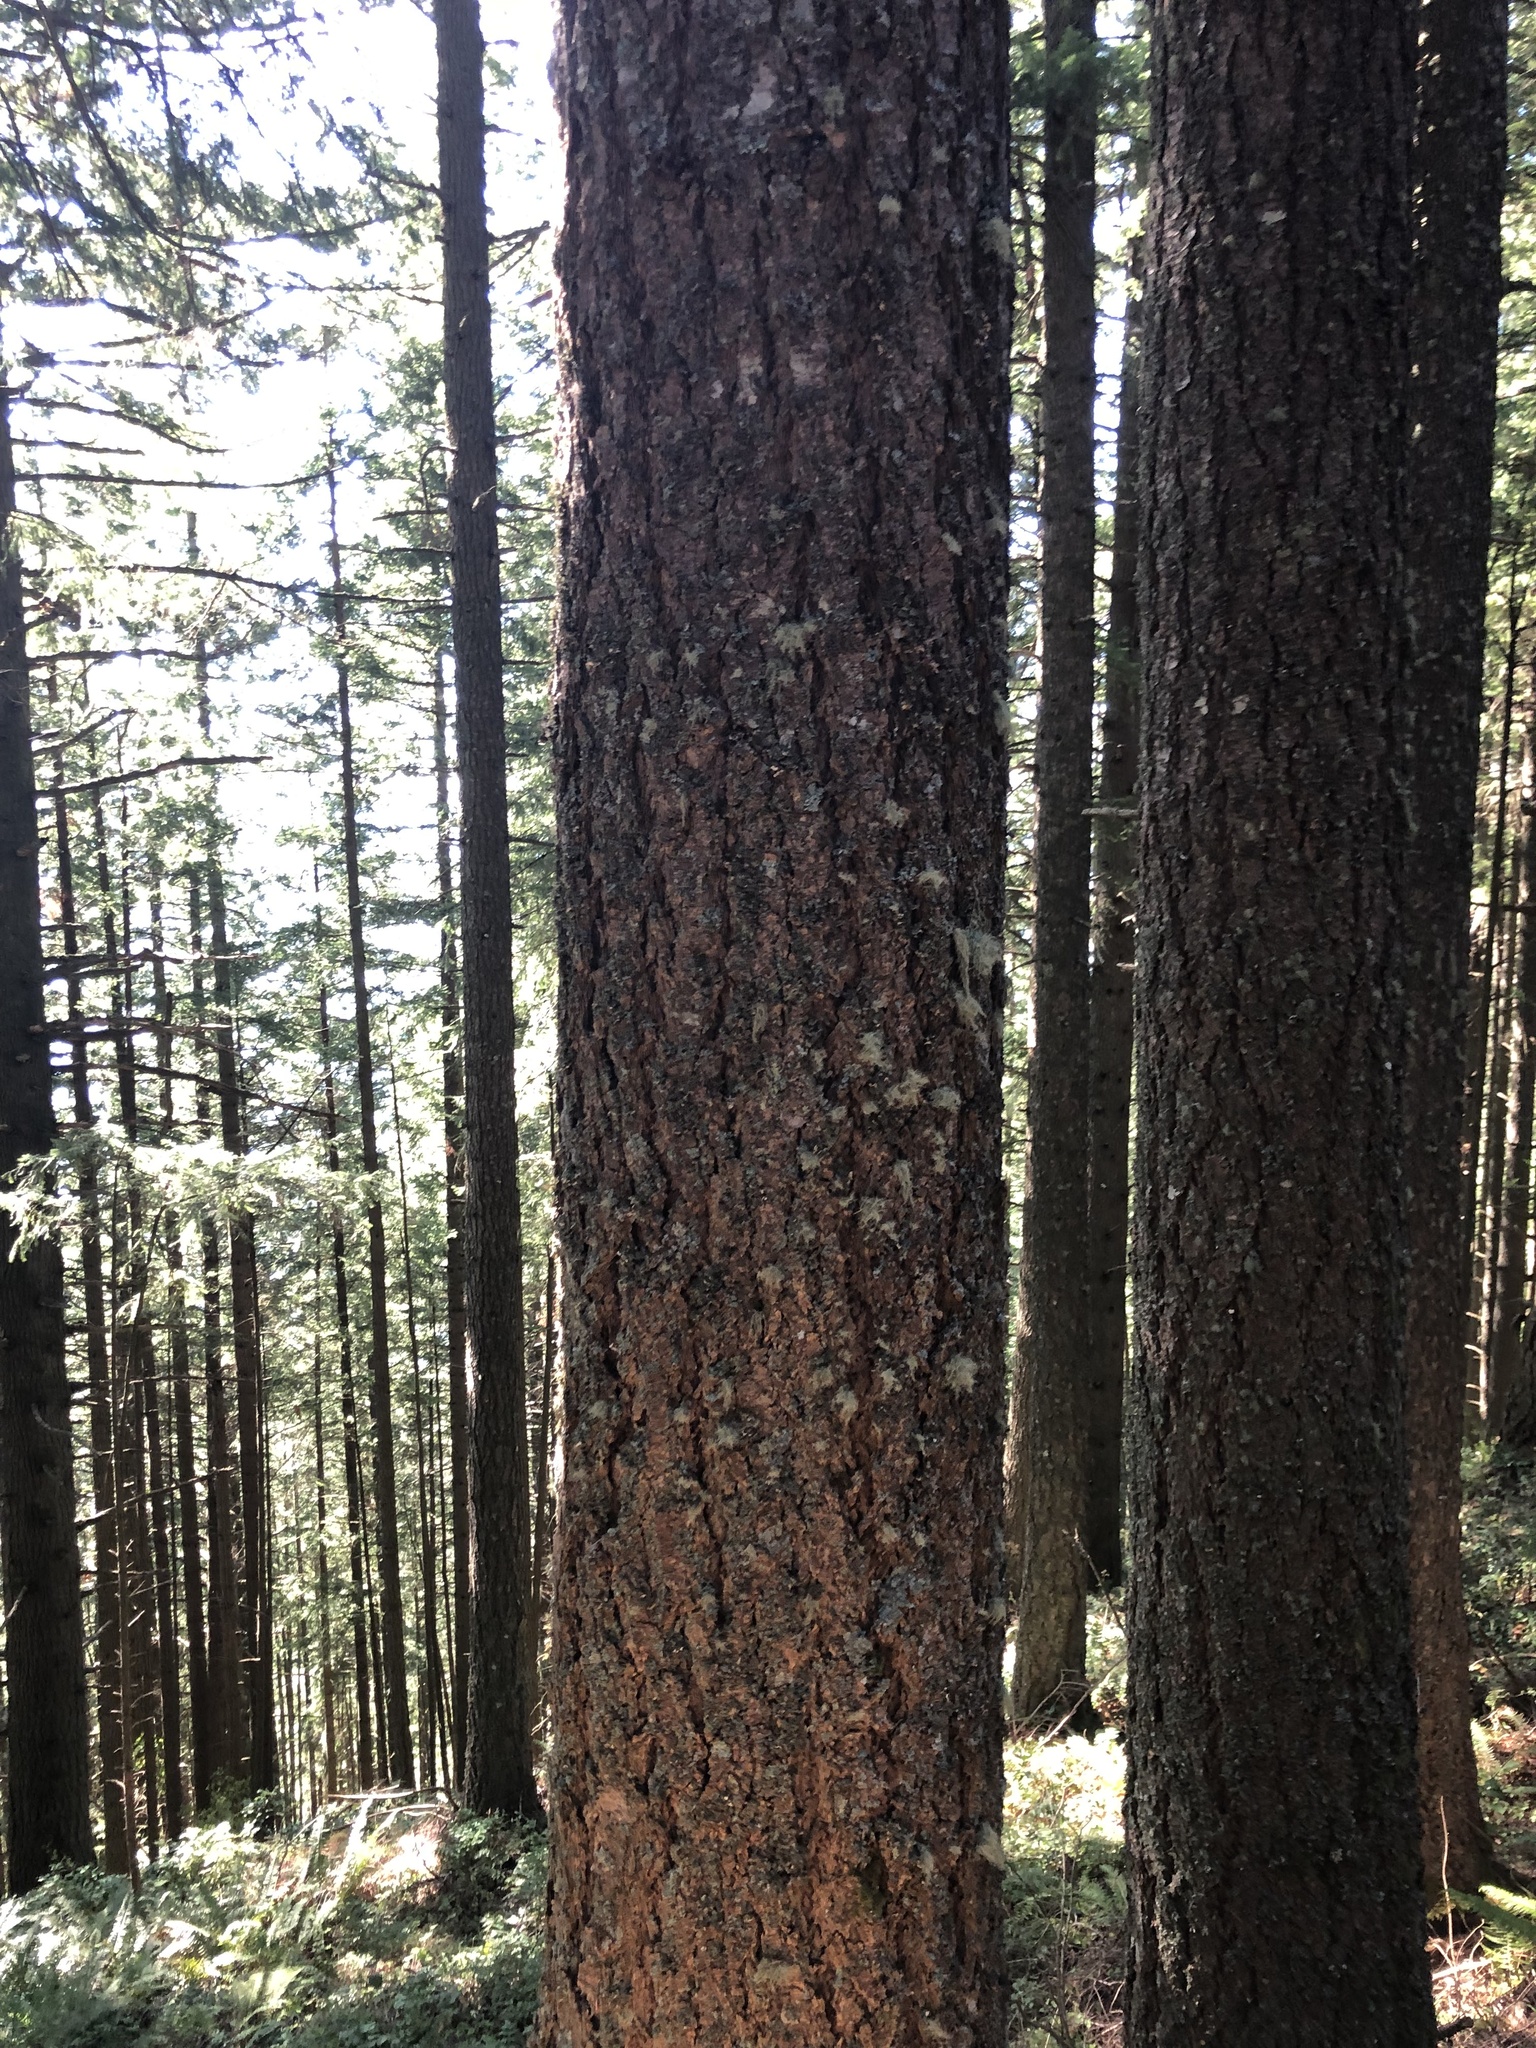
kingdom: Plantae
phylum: Tracheophyta
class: Pinopsida
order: Pinales
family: Pinaceae
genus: Pseudotsuga
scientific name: Pseudotsuga menziesii
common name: Douglas fir
